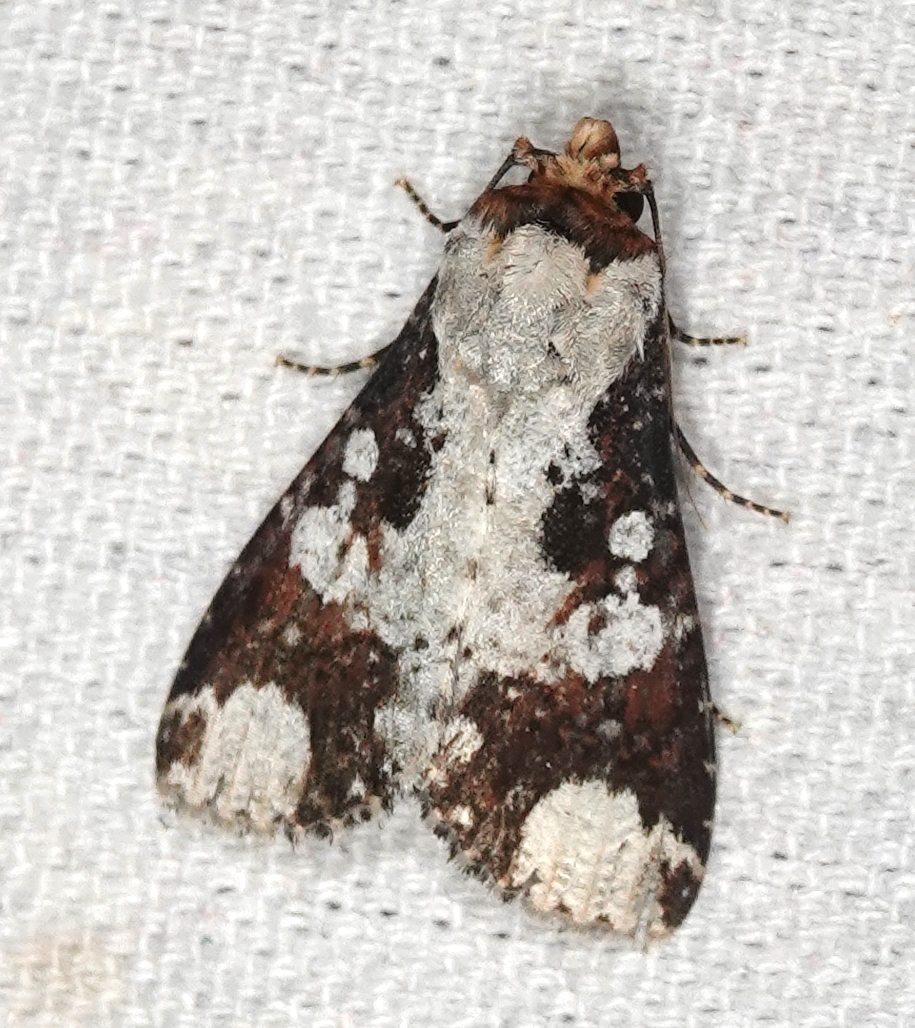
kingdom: Animalia
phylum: Arthropoda
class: Insecta
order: Lepidoptera
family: Noctuidae
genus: Condica
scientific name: Condica mimica
